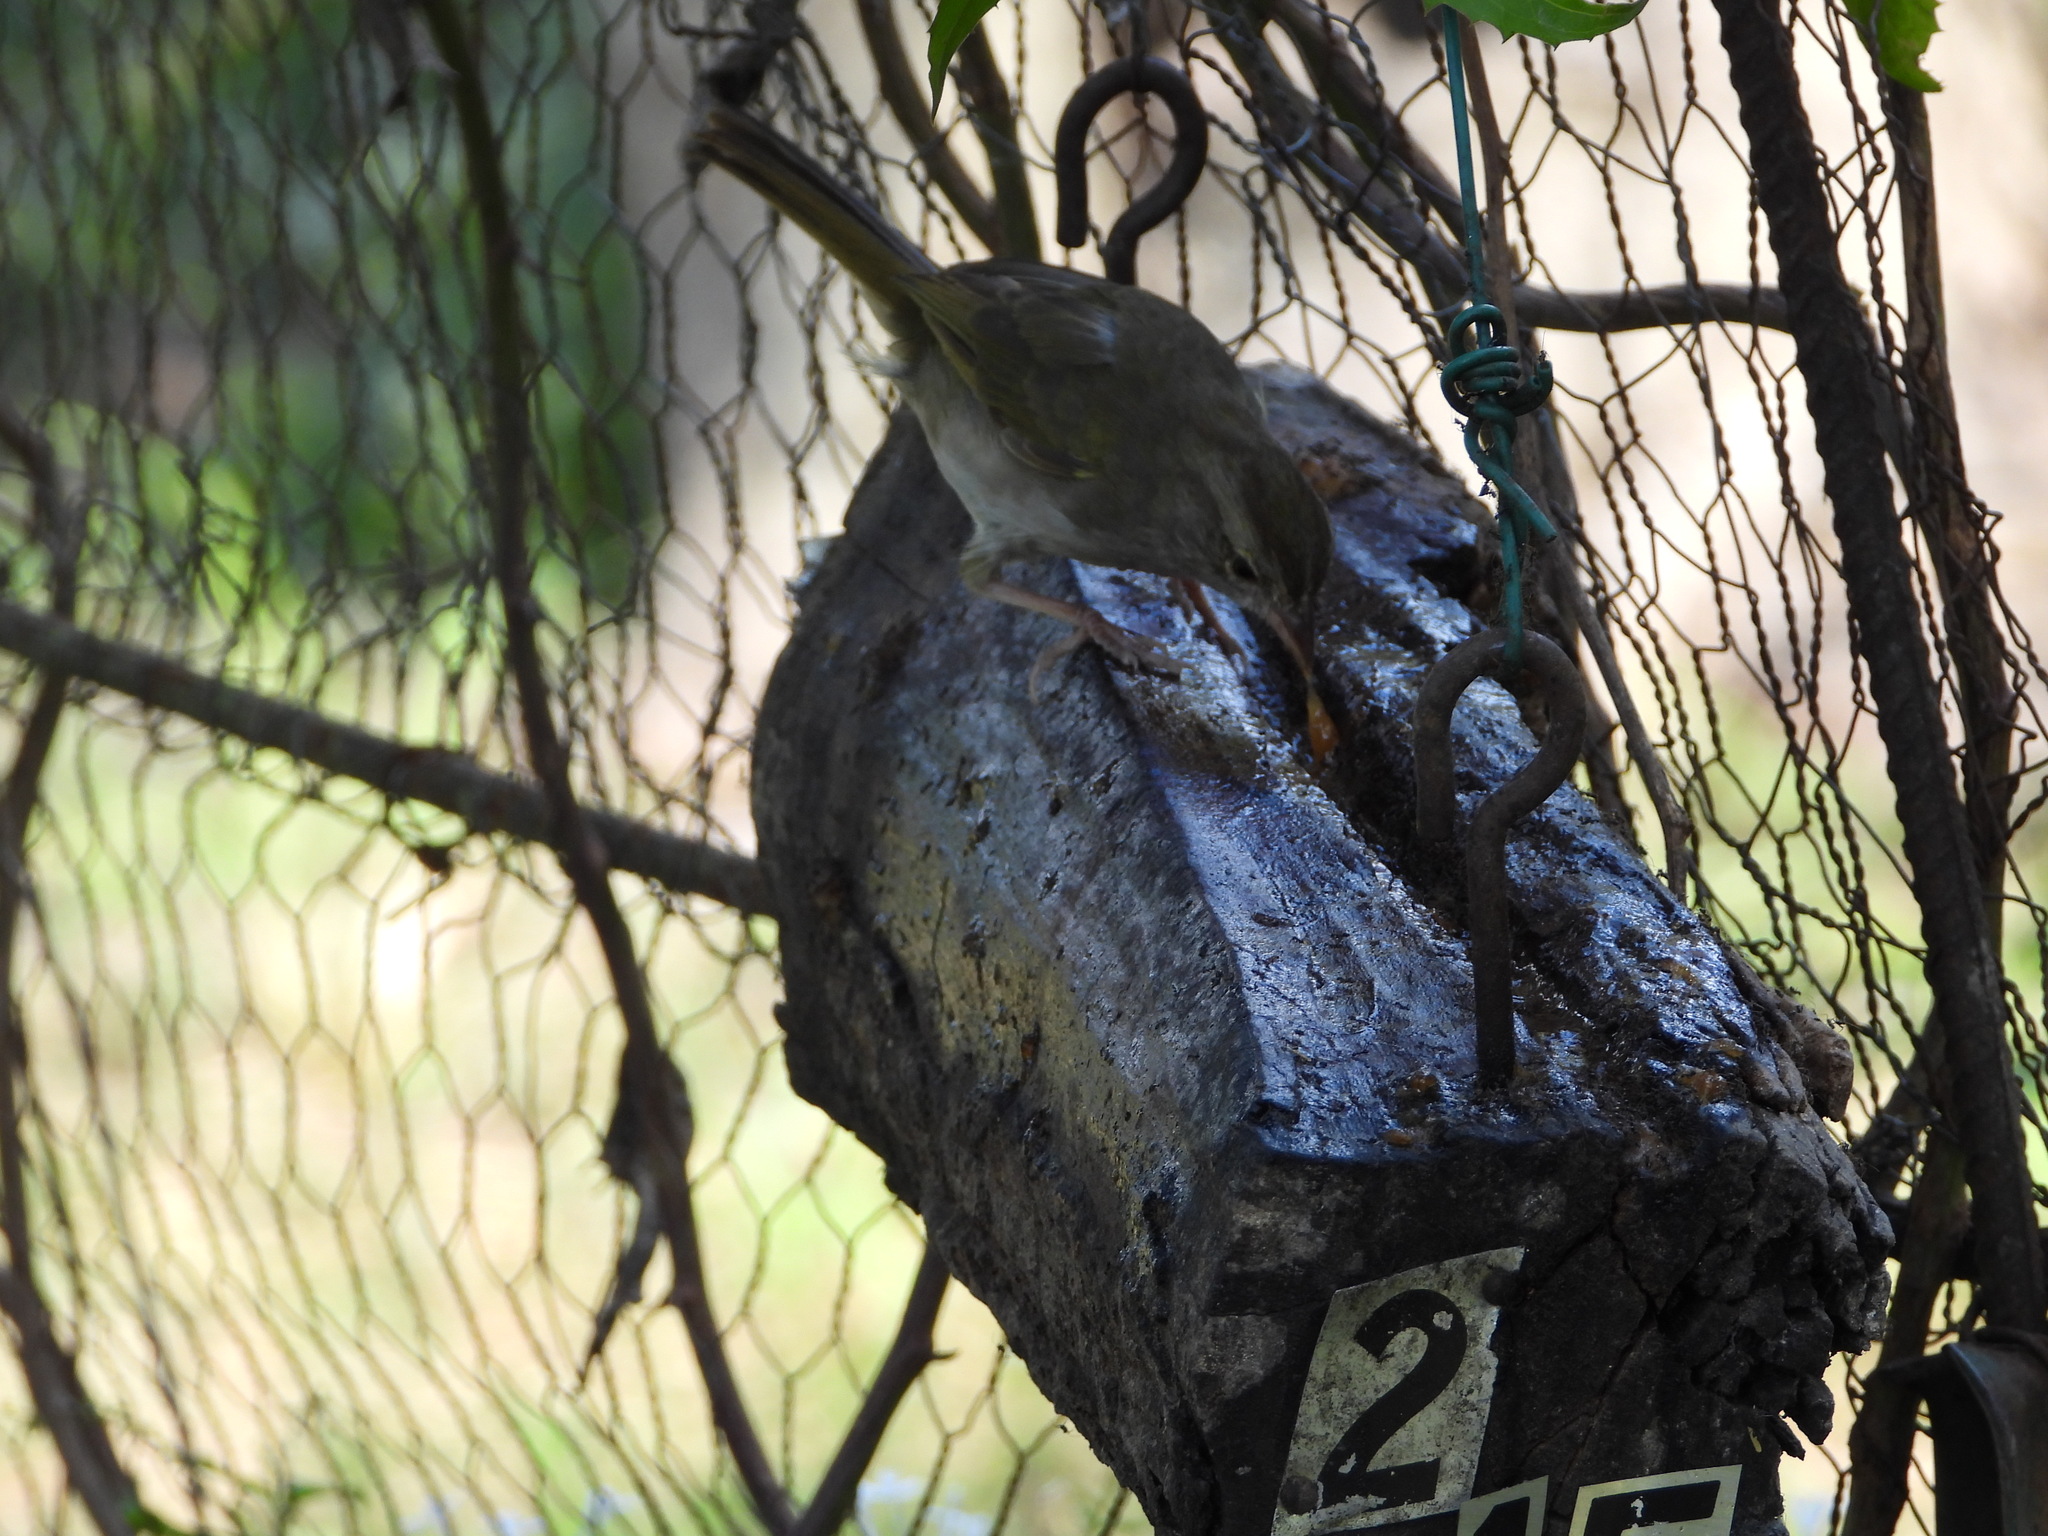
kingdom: Animalia
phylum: Chordata
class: Aves
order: Passeriformes
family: Passerellidae
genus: Arremonops
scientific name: Arremonops rufivirgatus
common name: Olive sparrow
